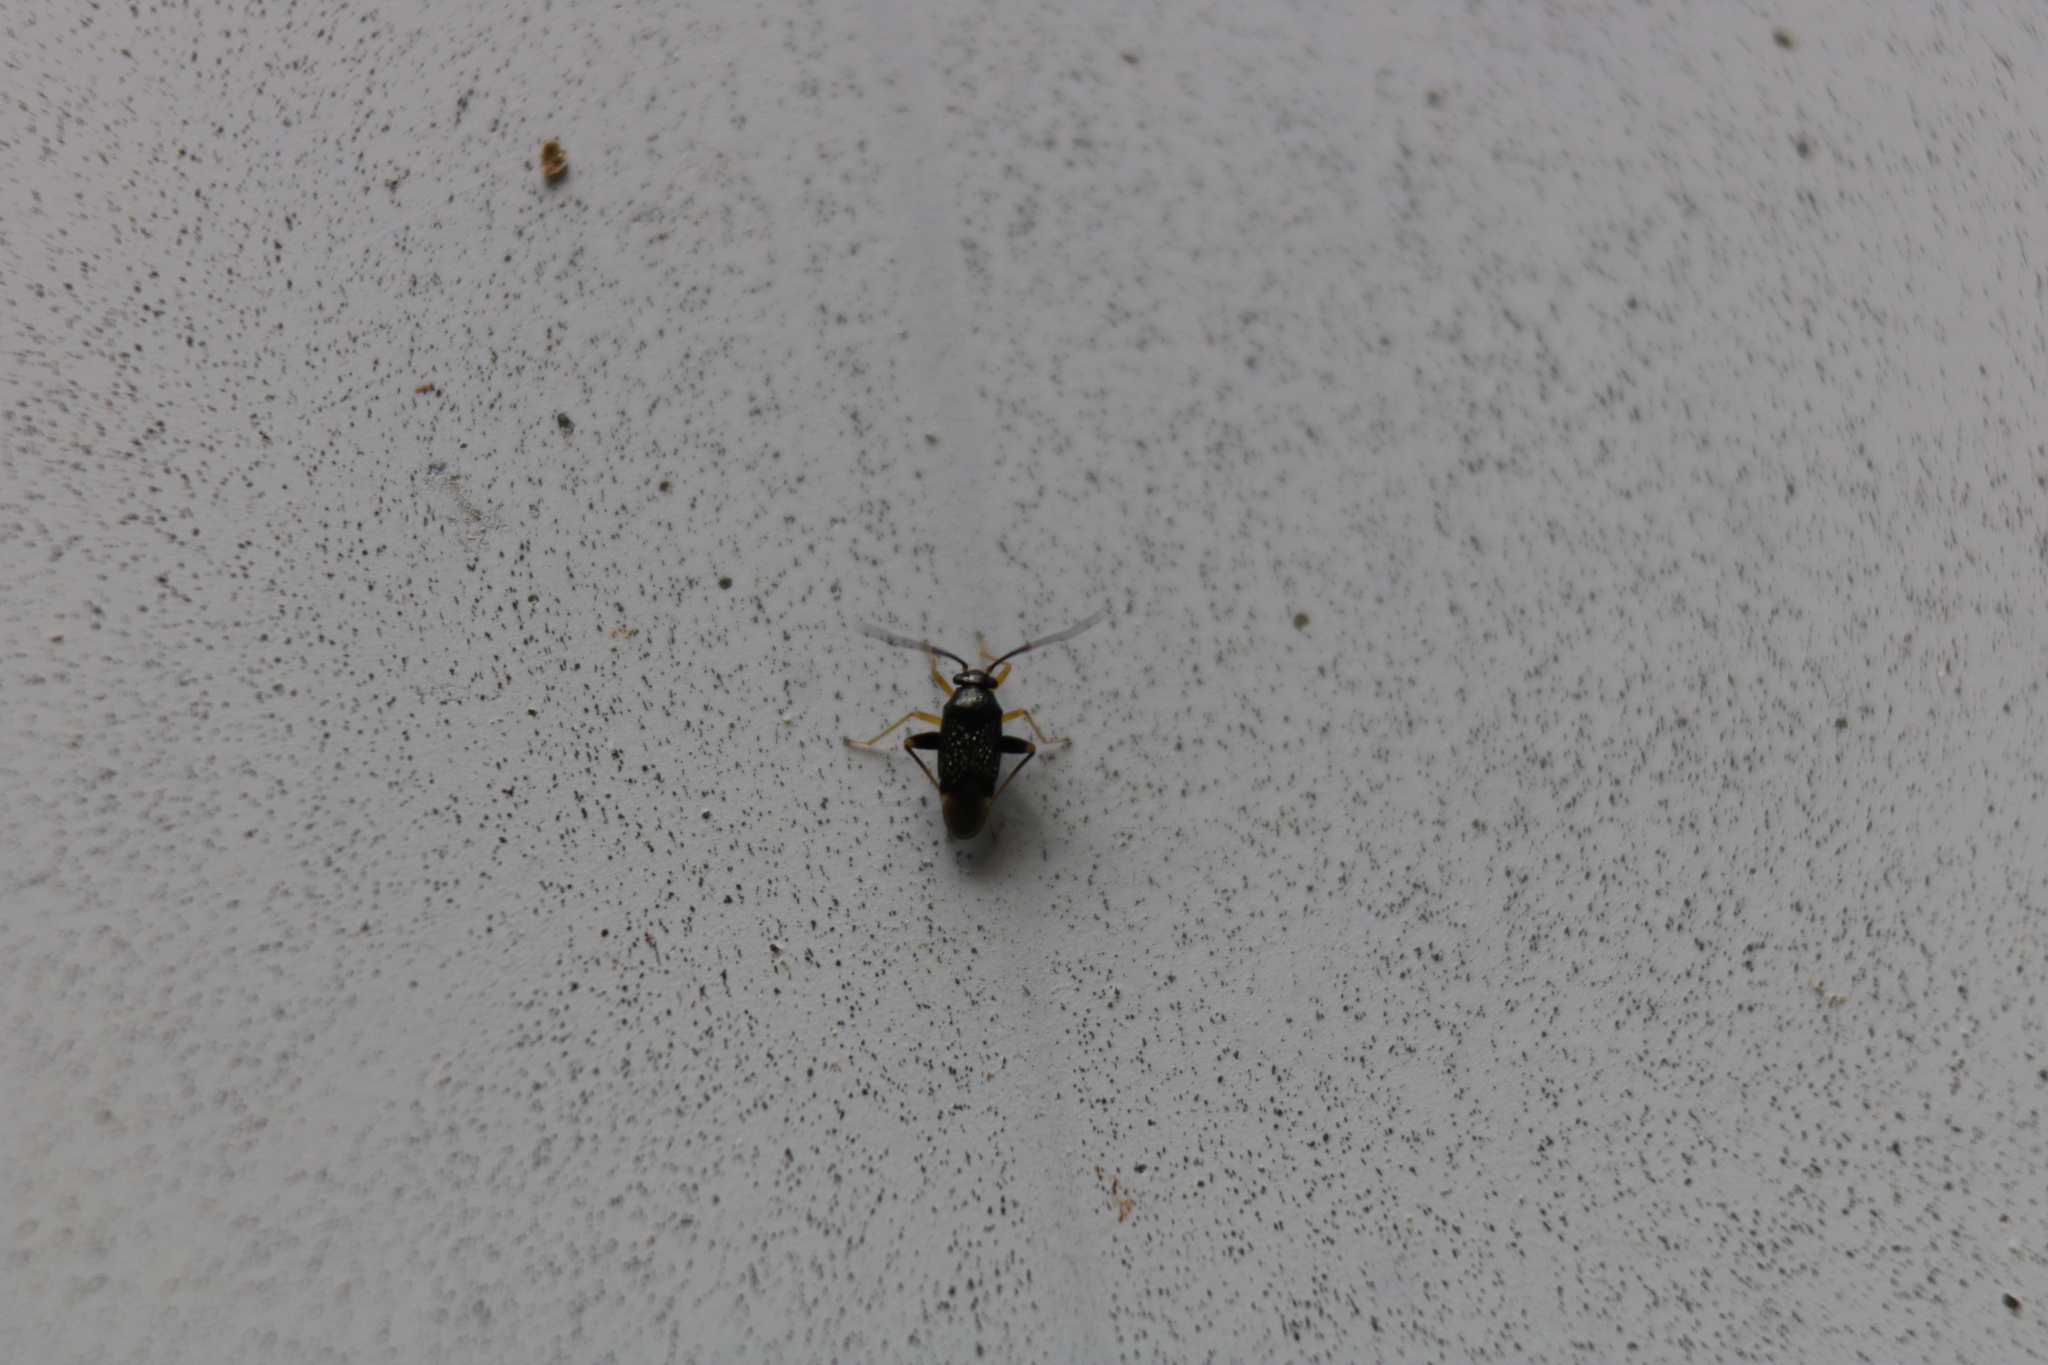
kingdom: Animalia
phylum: Arthropoda
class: Insecta
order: Hemiptera
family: Miridae
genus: Microtechnites
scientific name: Microtechnites bractatus
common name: Garden fleahopper
